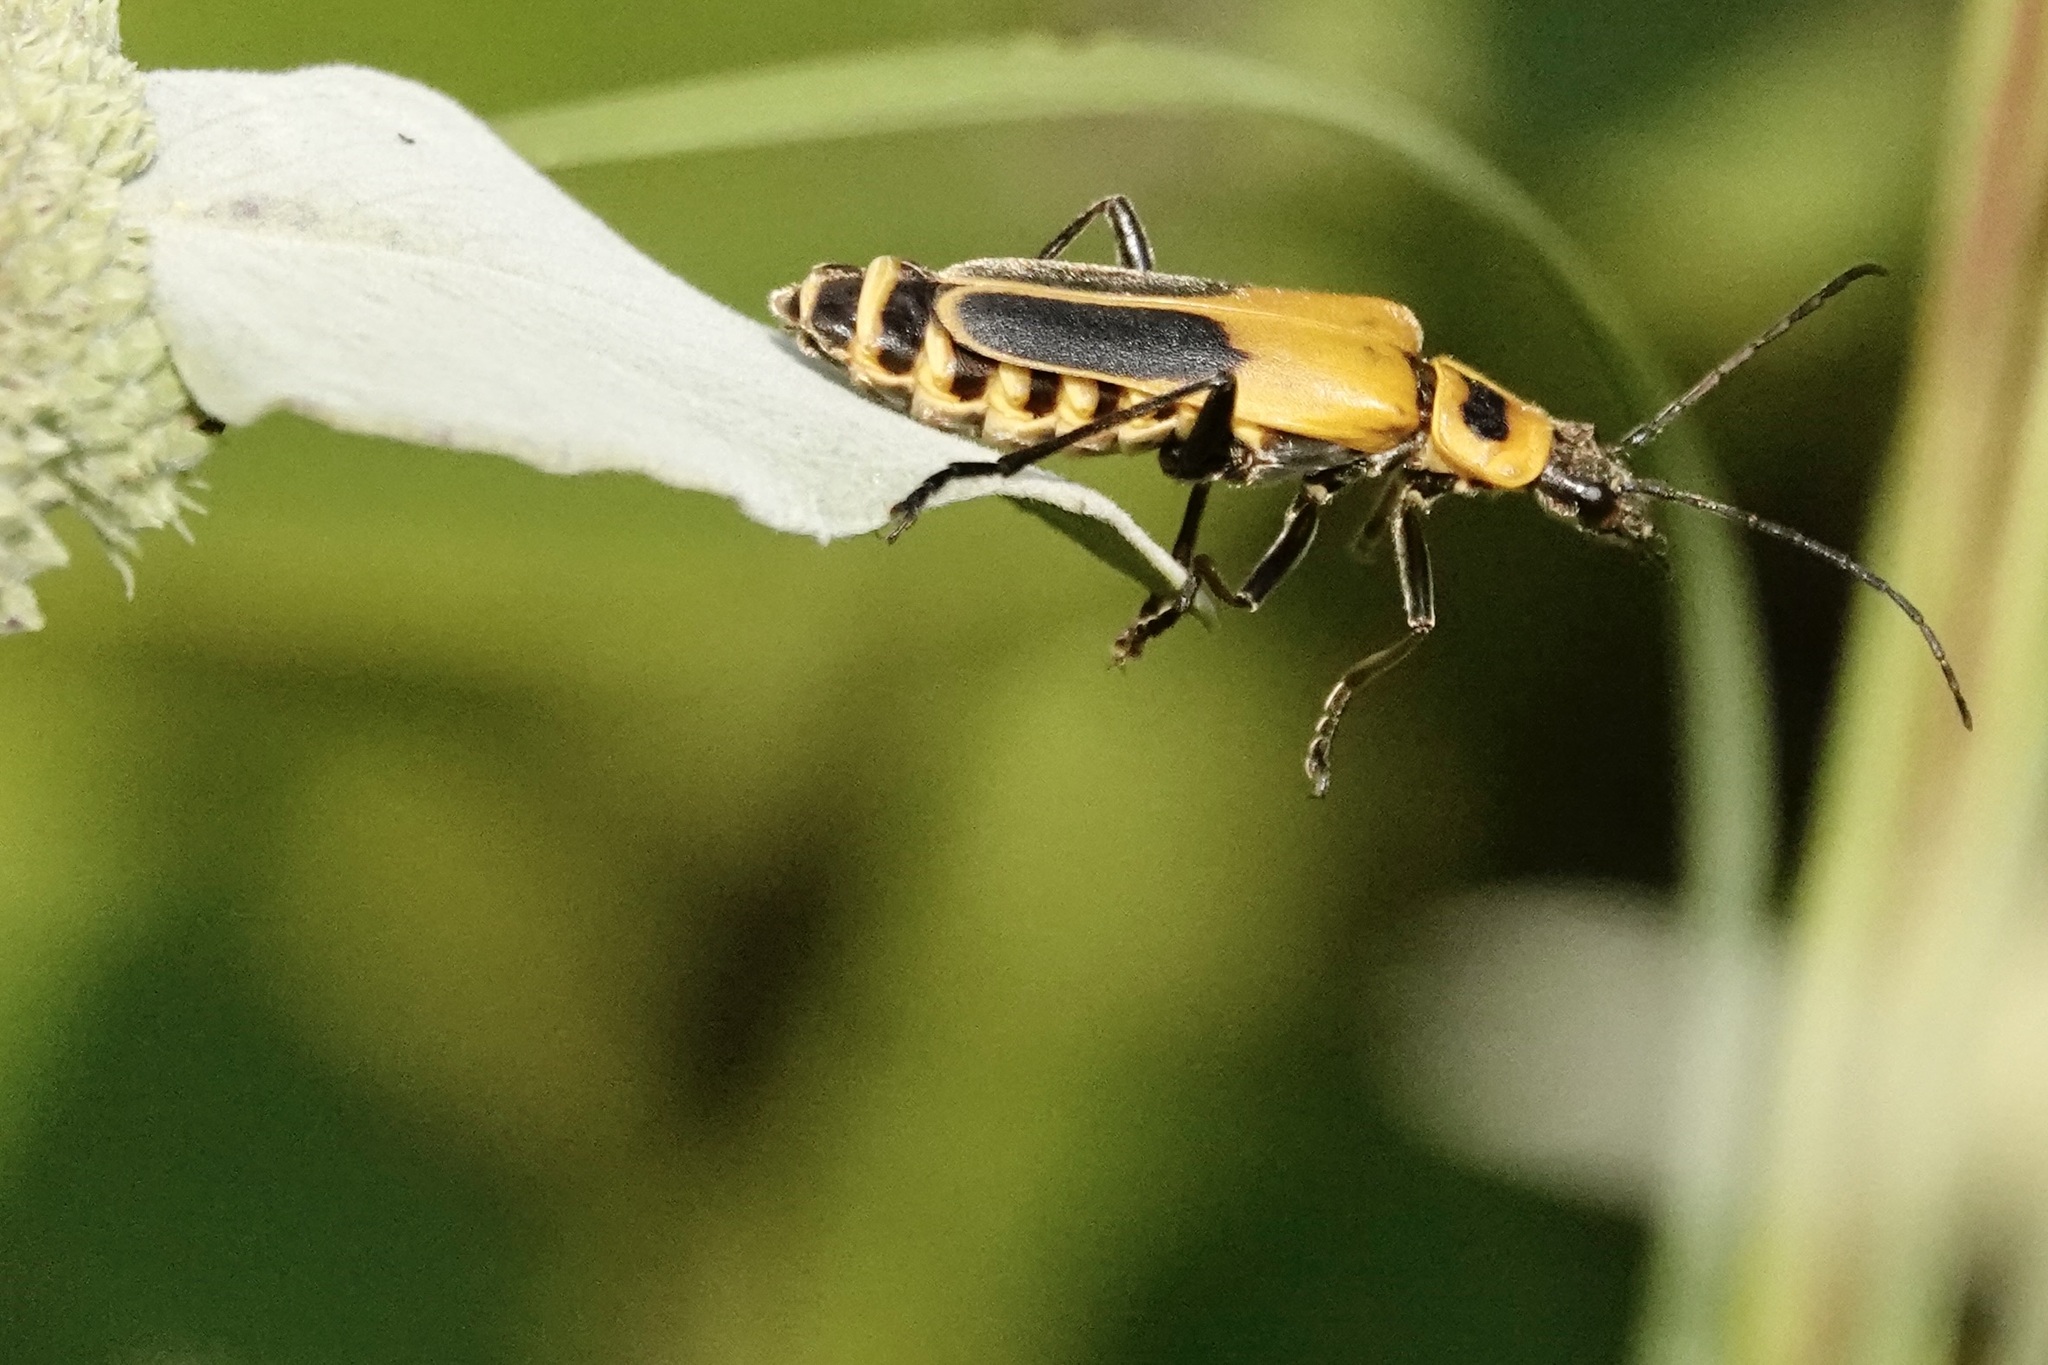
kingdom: Animalia
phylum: Arthropoda
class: Insecta
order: Coleoptera
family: Cantharidae
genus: Chauliognathus
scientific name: Chauliognathus pensylvanicus
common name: Goldenrod soldier beetle
